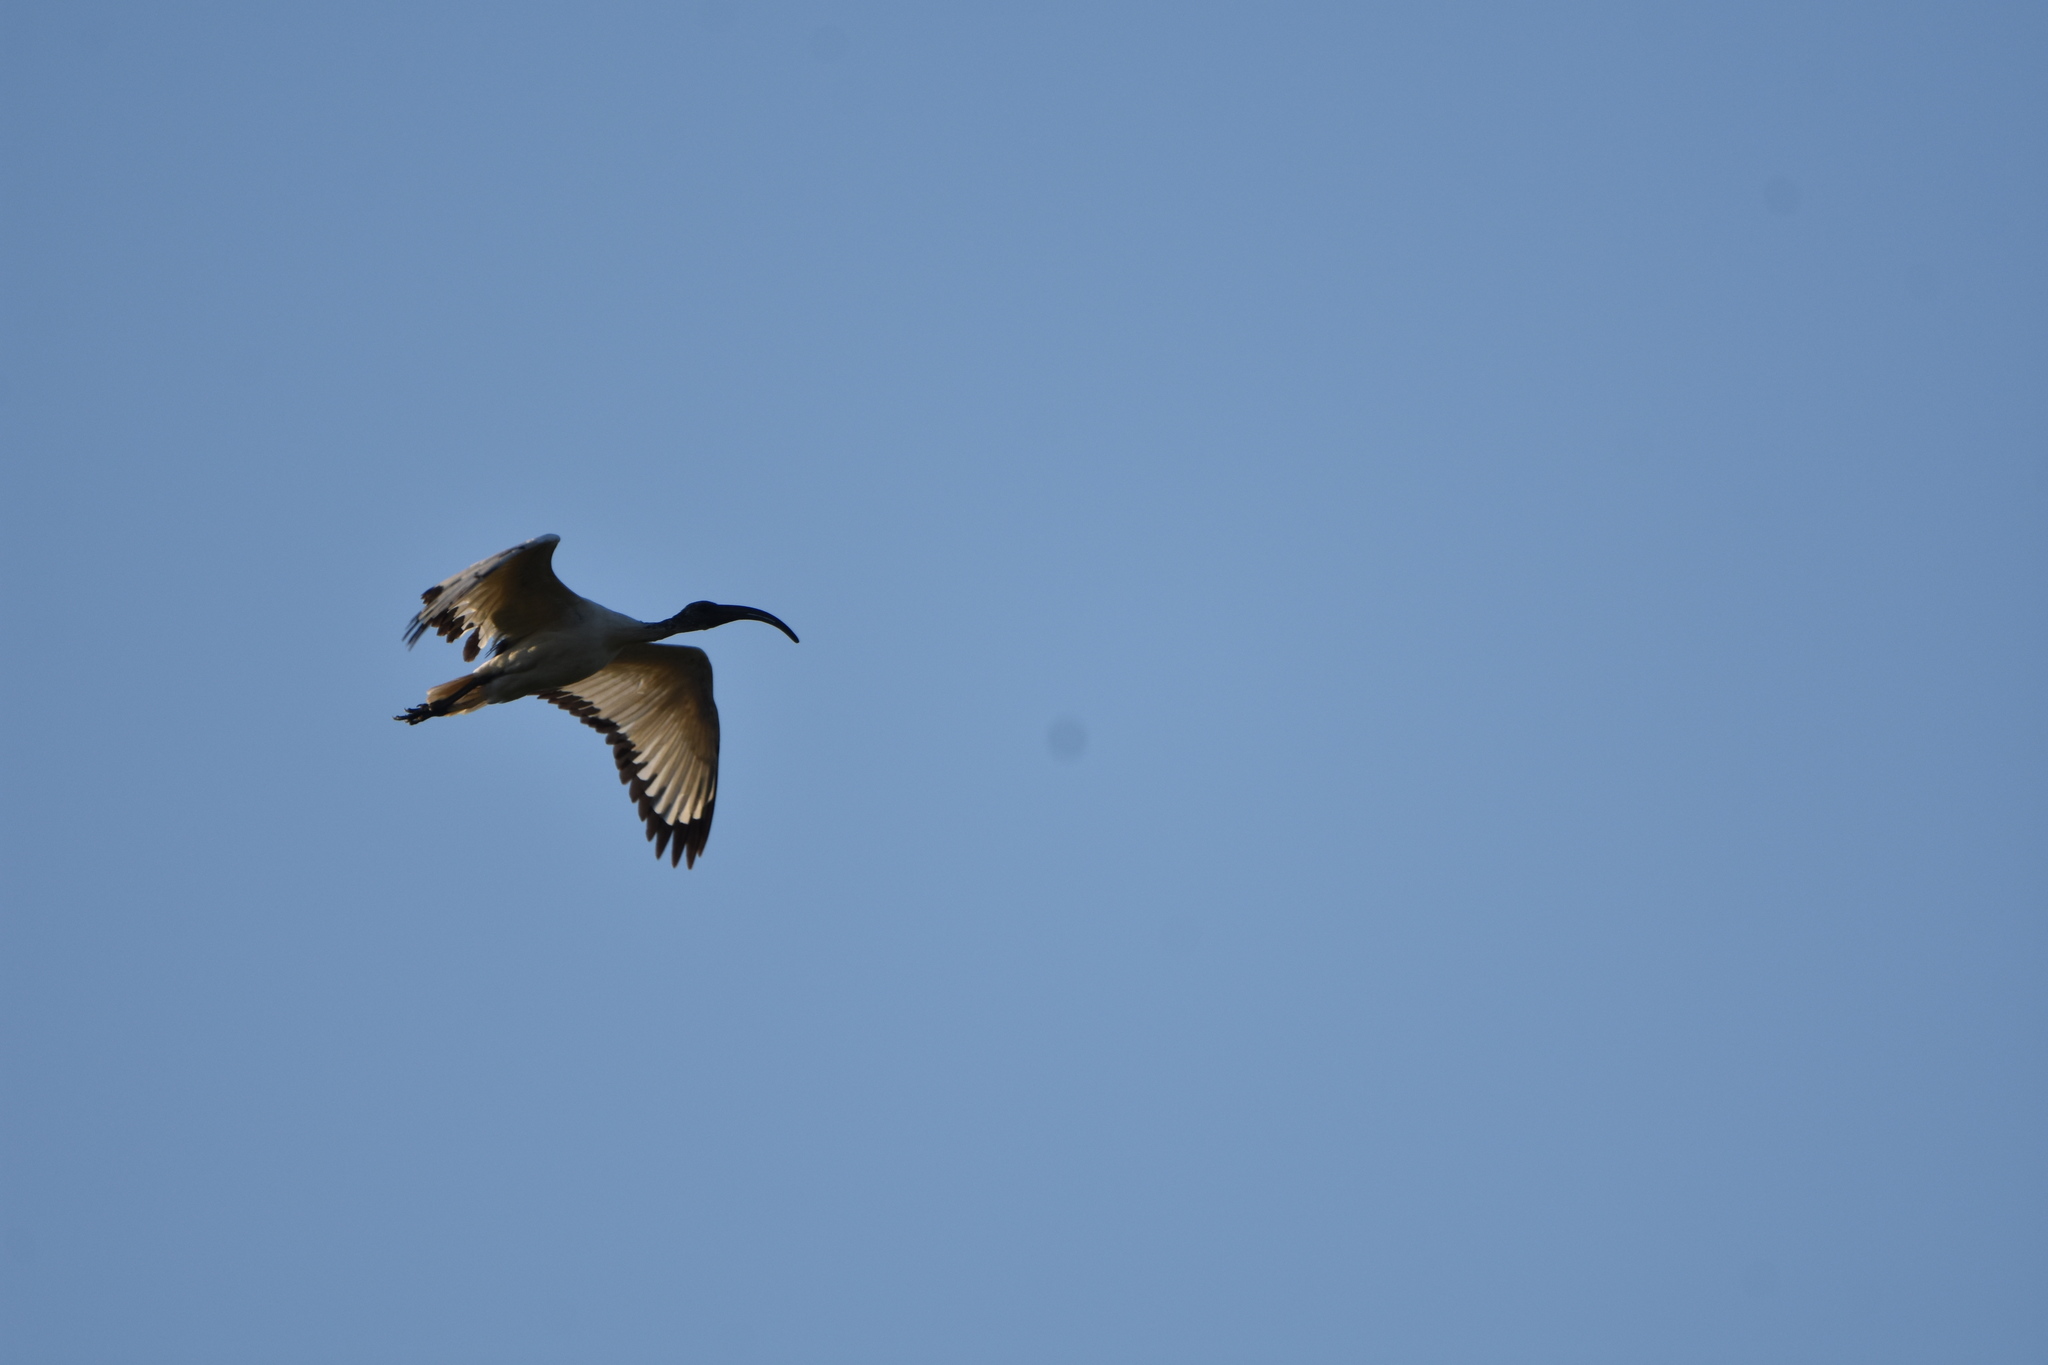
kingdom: Animalia
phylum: Chordata
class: Aves
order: Pelecaniformes
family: Threskiornithidae
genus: Threskiornis
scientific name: Threskiornis aethiopicus
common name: Sacred ibis
